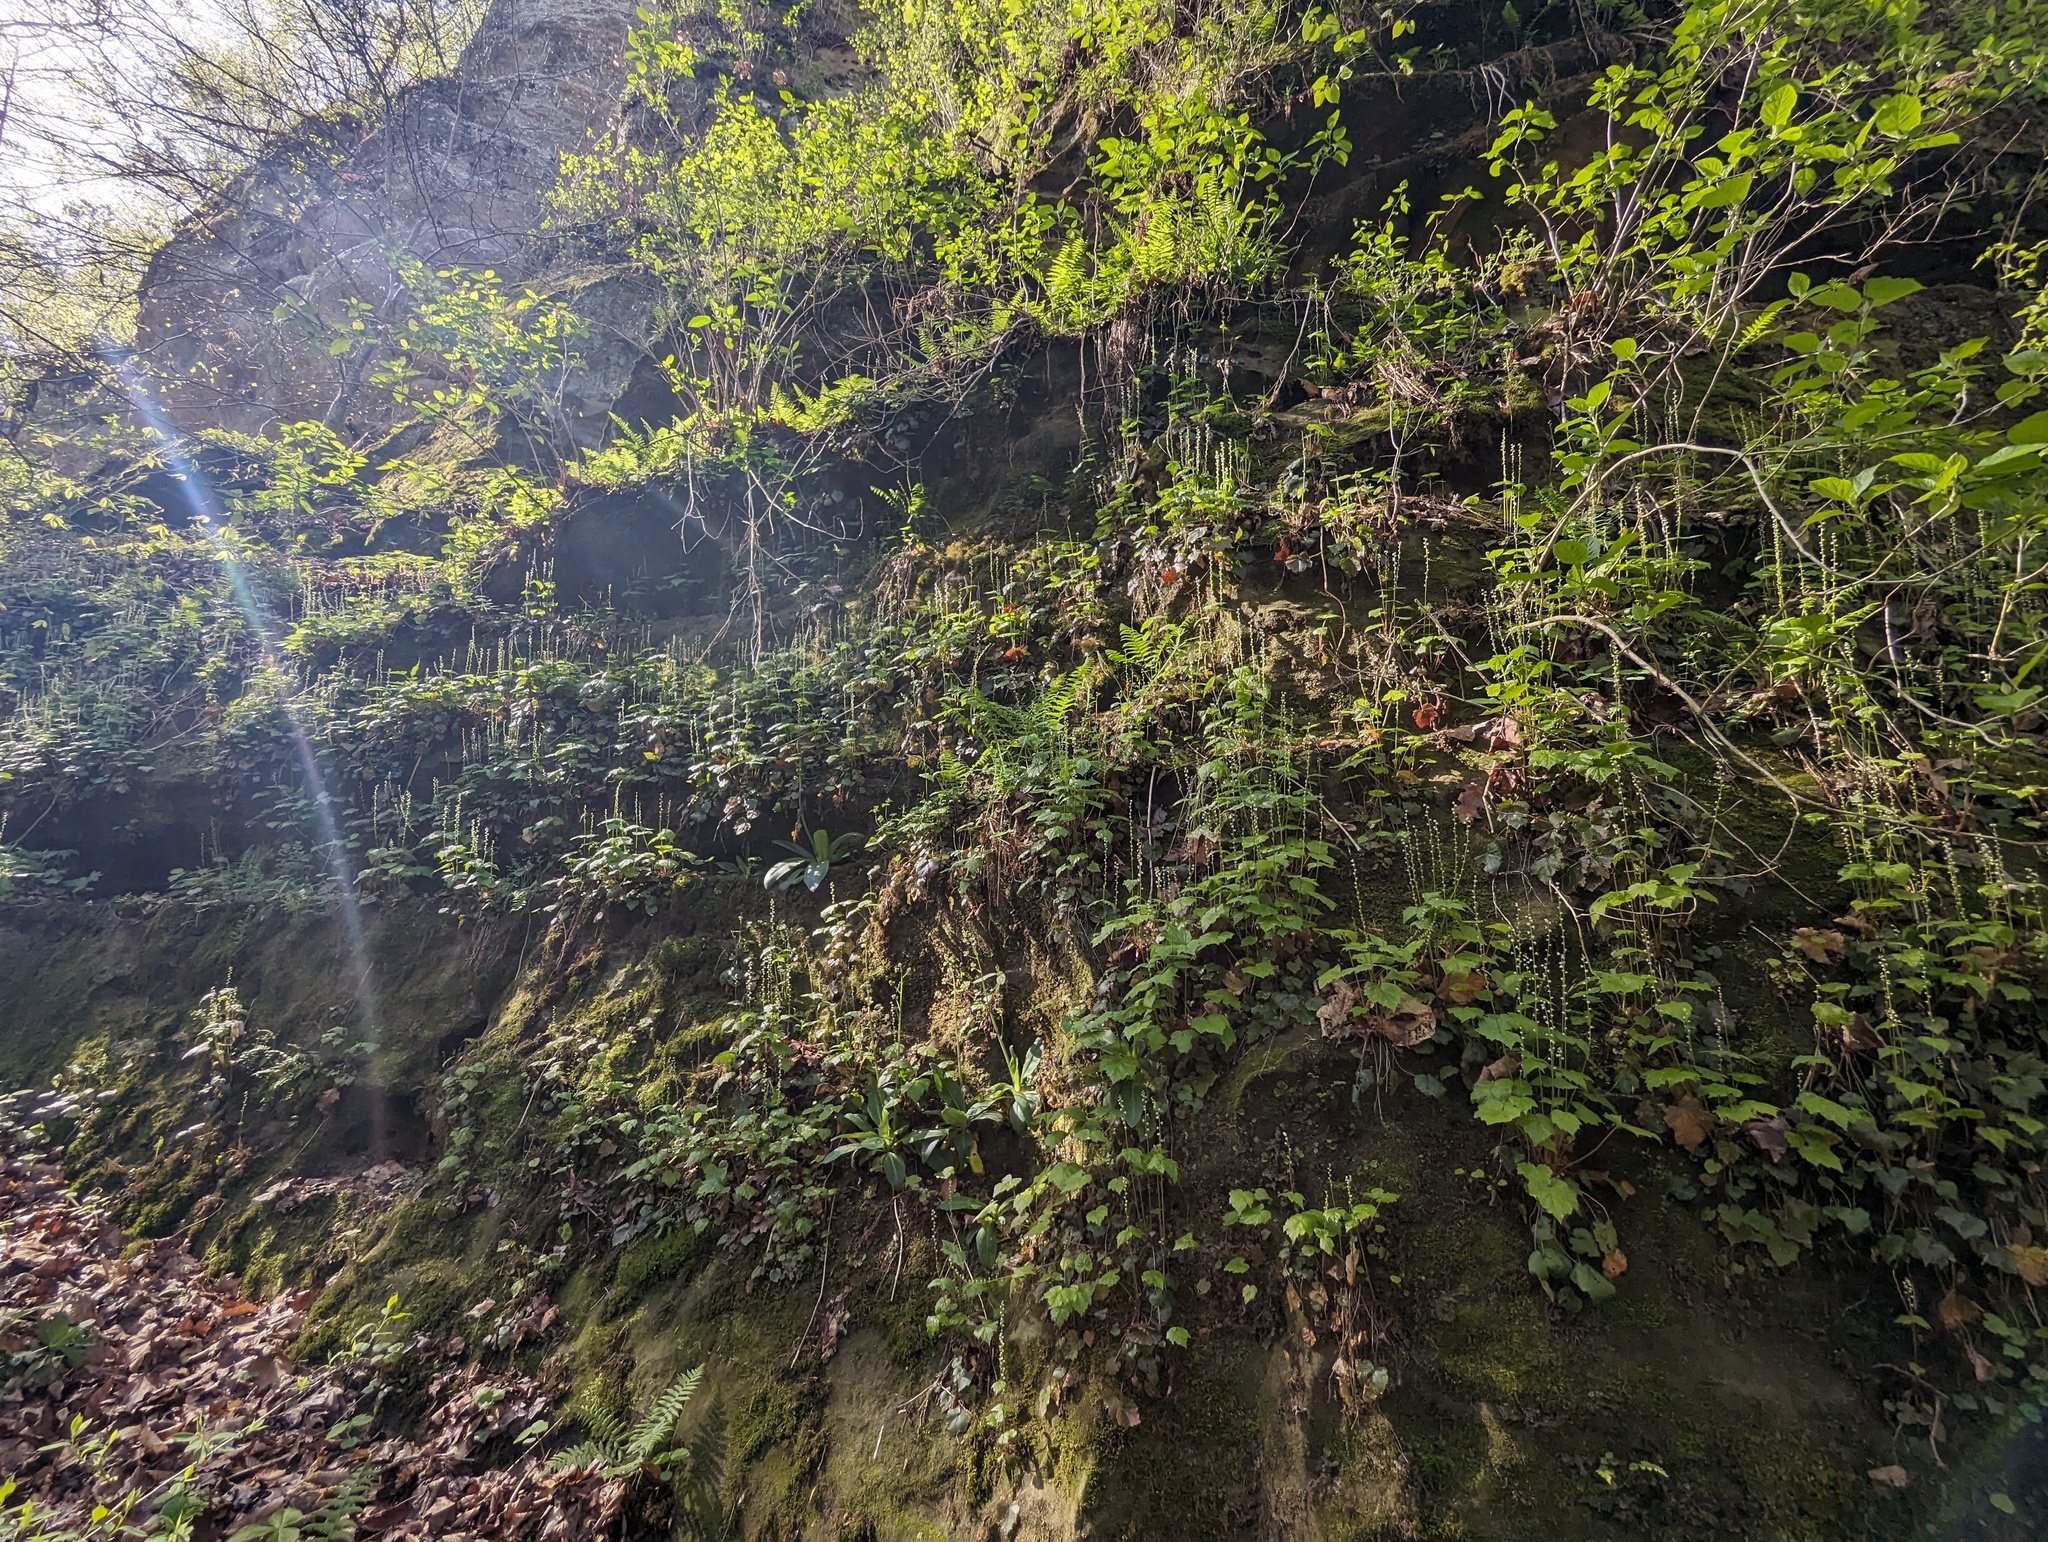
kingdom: Plantae
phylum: Tracheophyta
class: Magnoliopsida
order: Saxifragales
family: Saxifragaceae
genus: Mitella
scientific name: Mitella diphylla
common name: Coolwort
